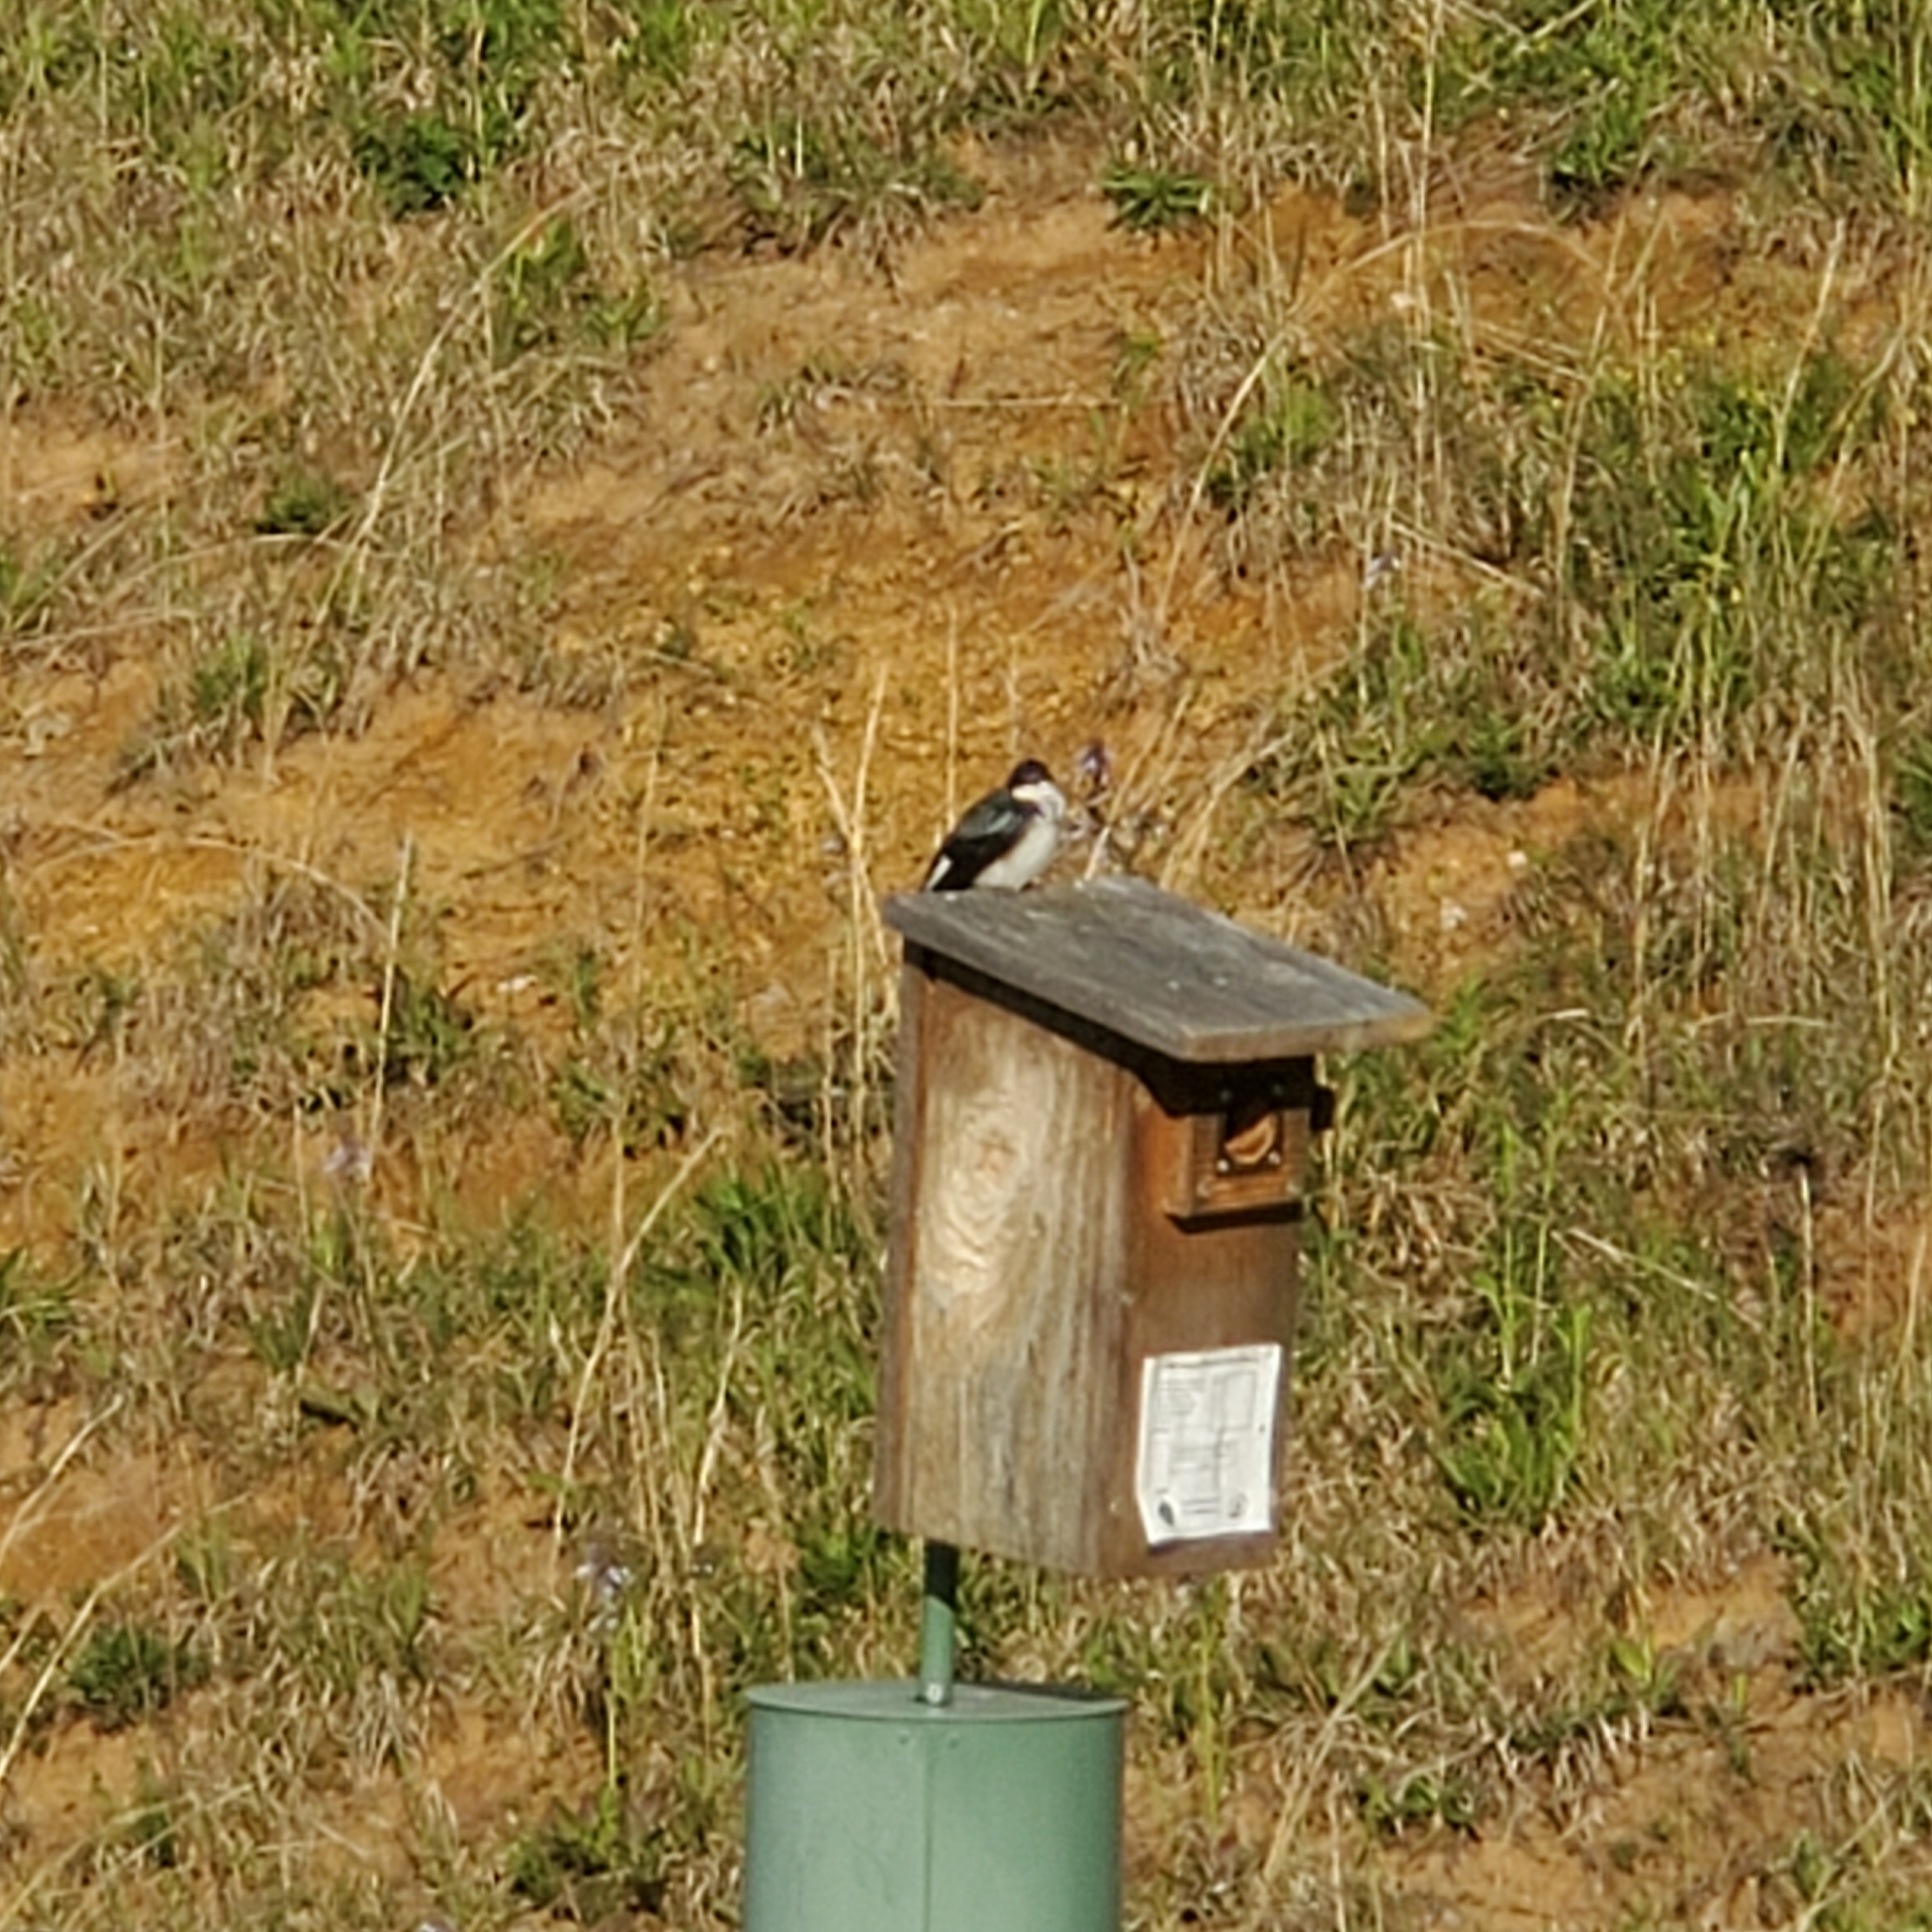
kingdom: Animalia
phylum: Chordata
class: Aves
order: Passeriformes
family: Hirundinidae
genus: Tachycineta
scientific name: Tachycineta bicolor
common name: Tree swallow
